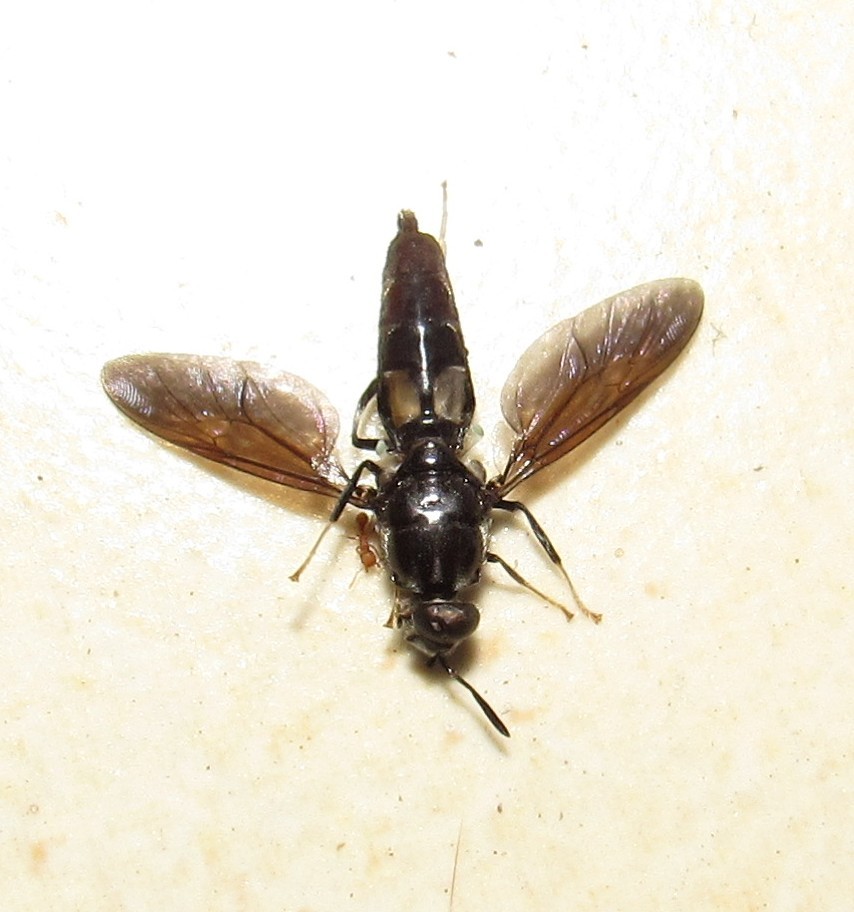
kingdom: Animalia
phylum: Arthropoda
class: Insecta
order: Diptera
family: Stratiomyidae
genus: Hermetia
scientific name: Hermetia illucens
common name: Black soldier fly
